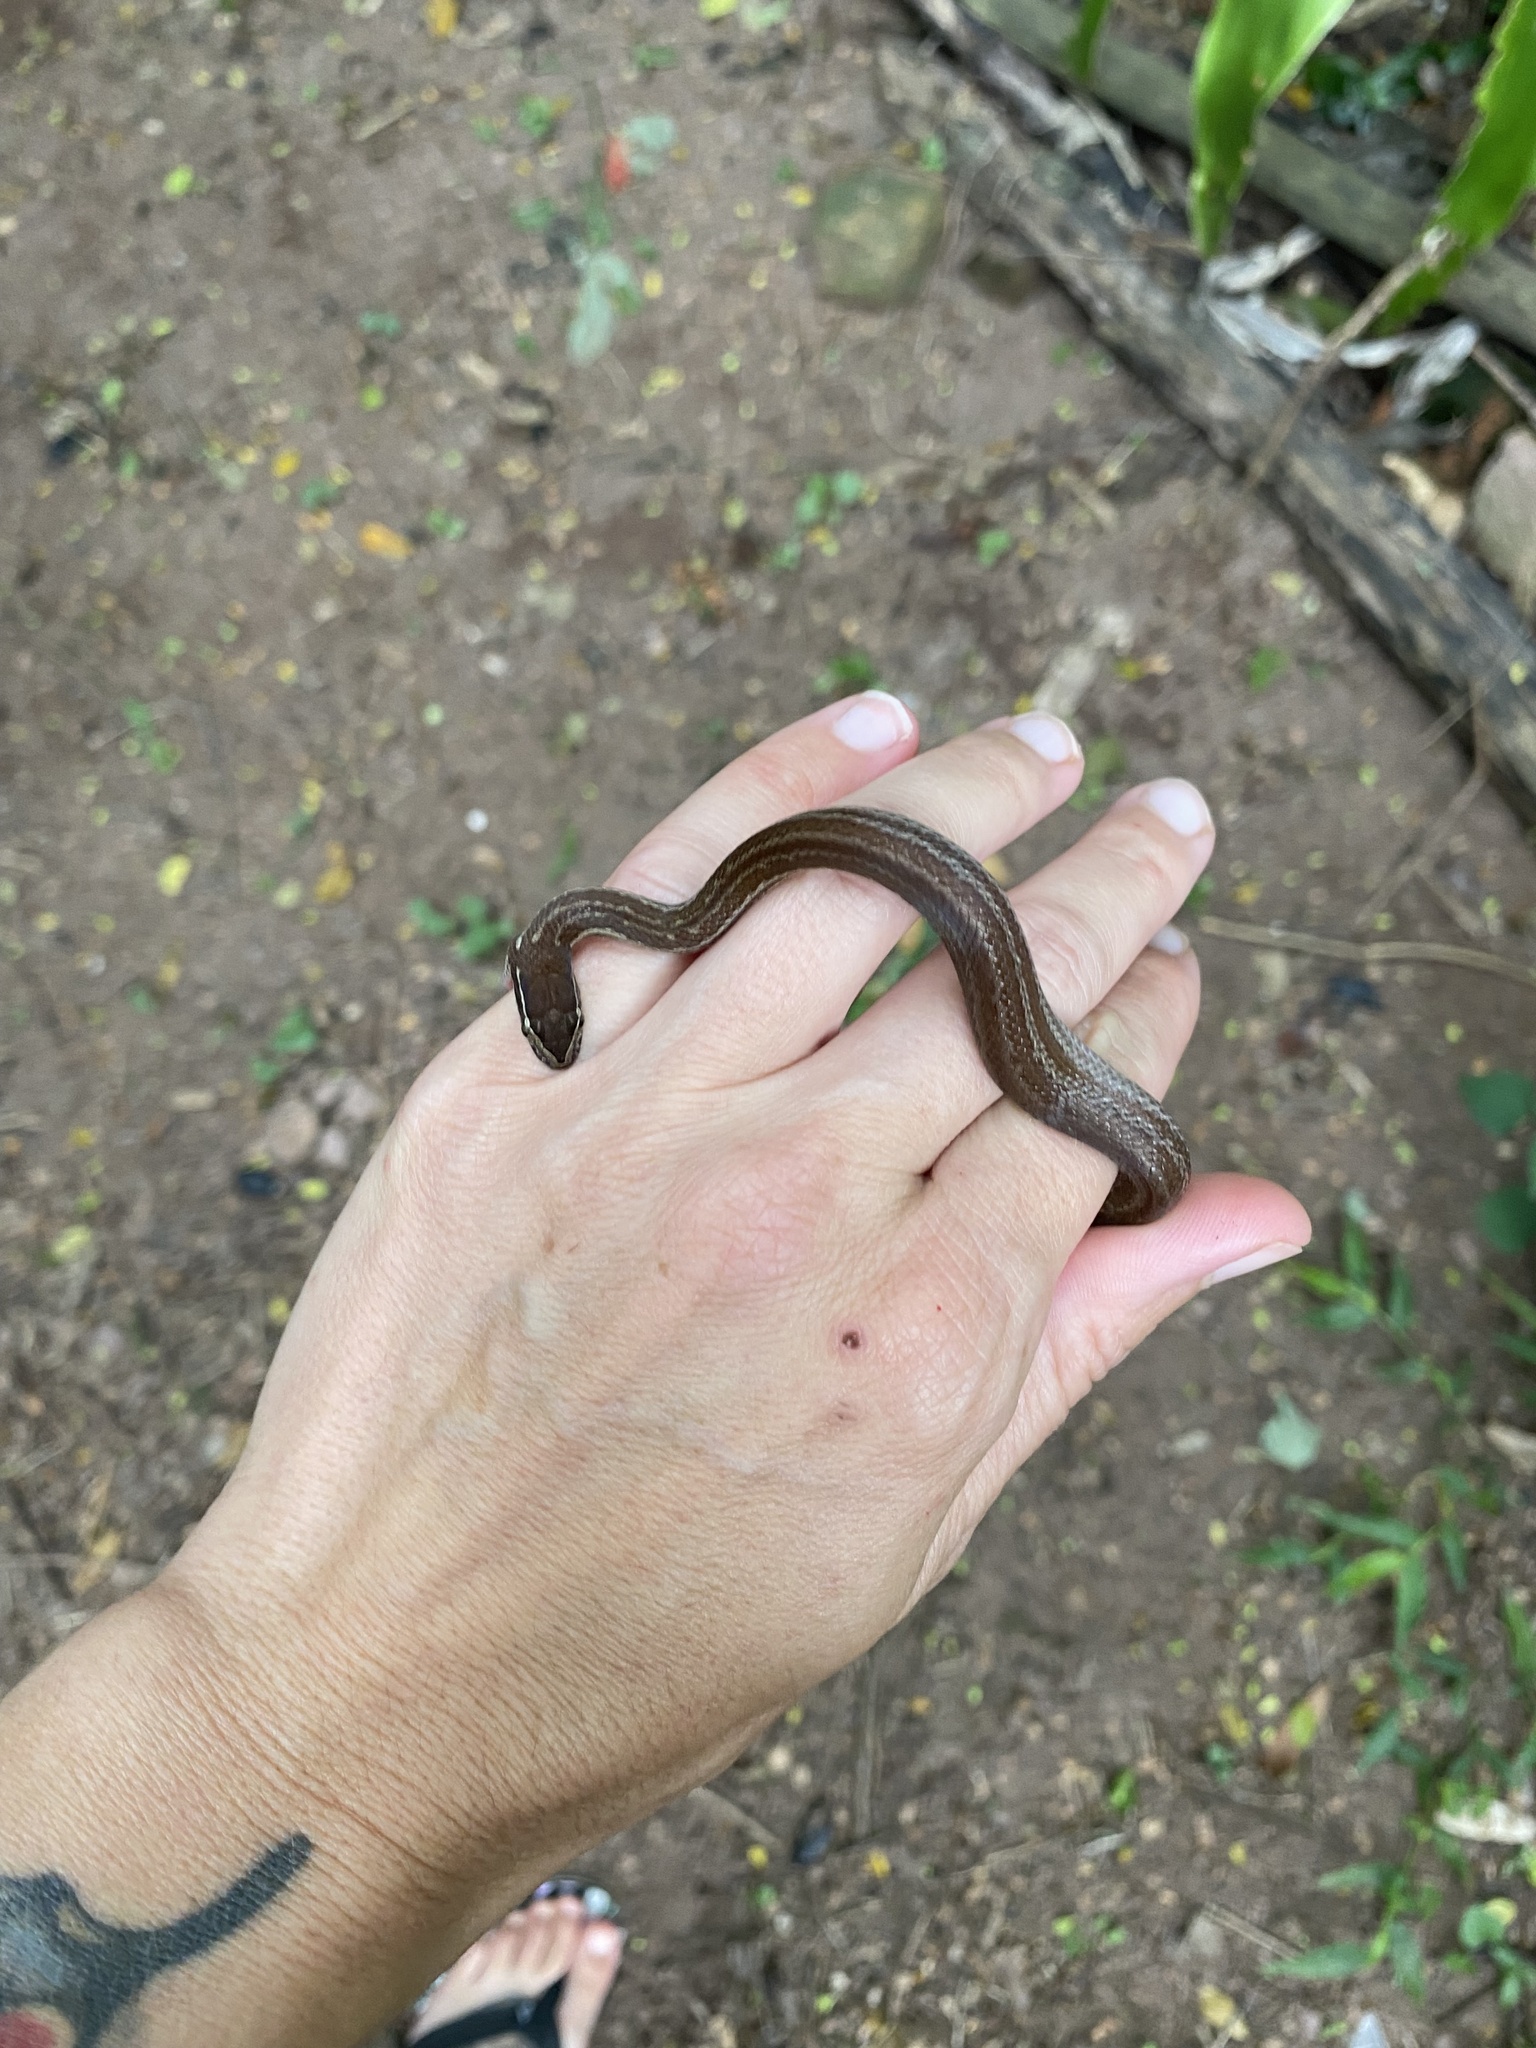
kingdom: Animalia
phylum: Chordata
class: Squamata
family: Lamprophiidae
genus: Boaedon
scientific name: Boaedon capensis
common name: Brown house snake
